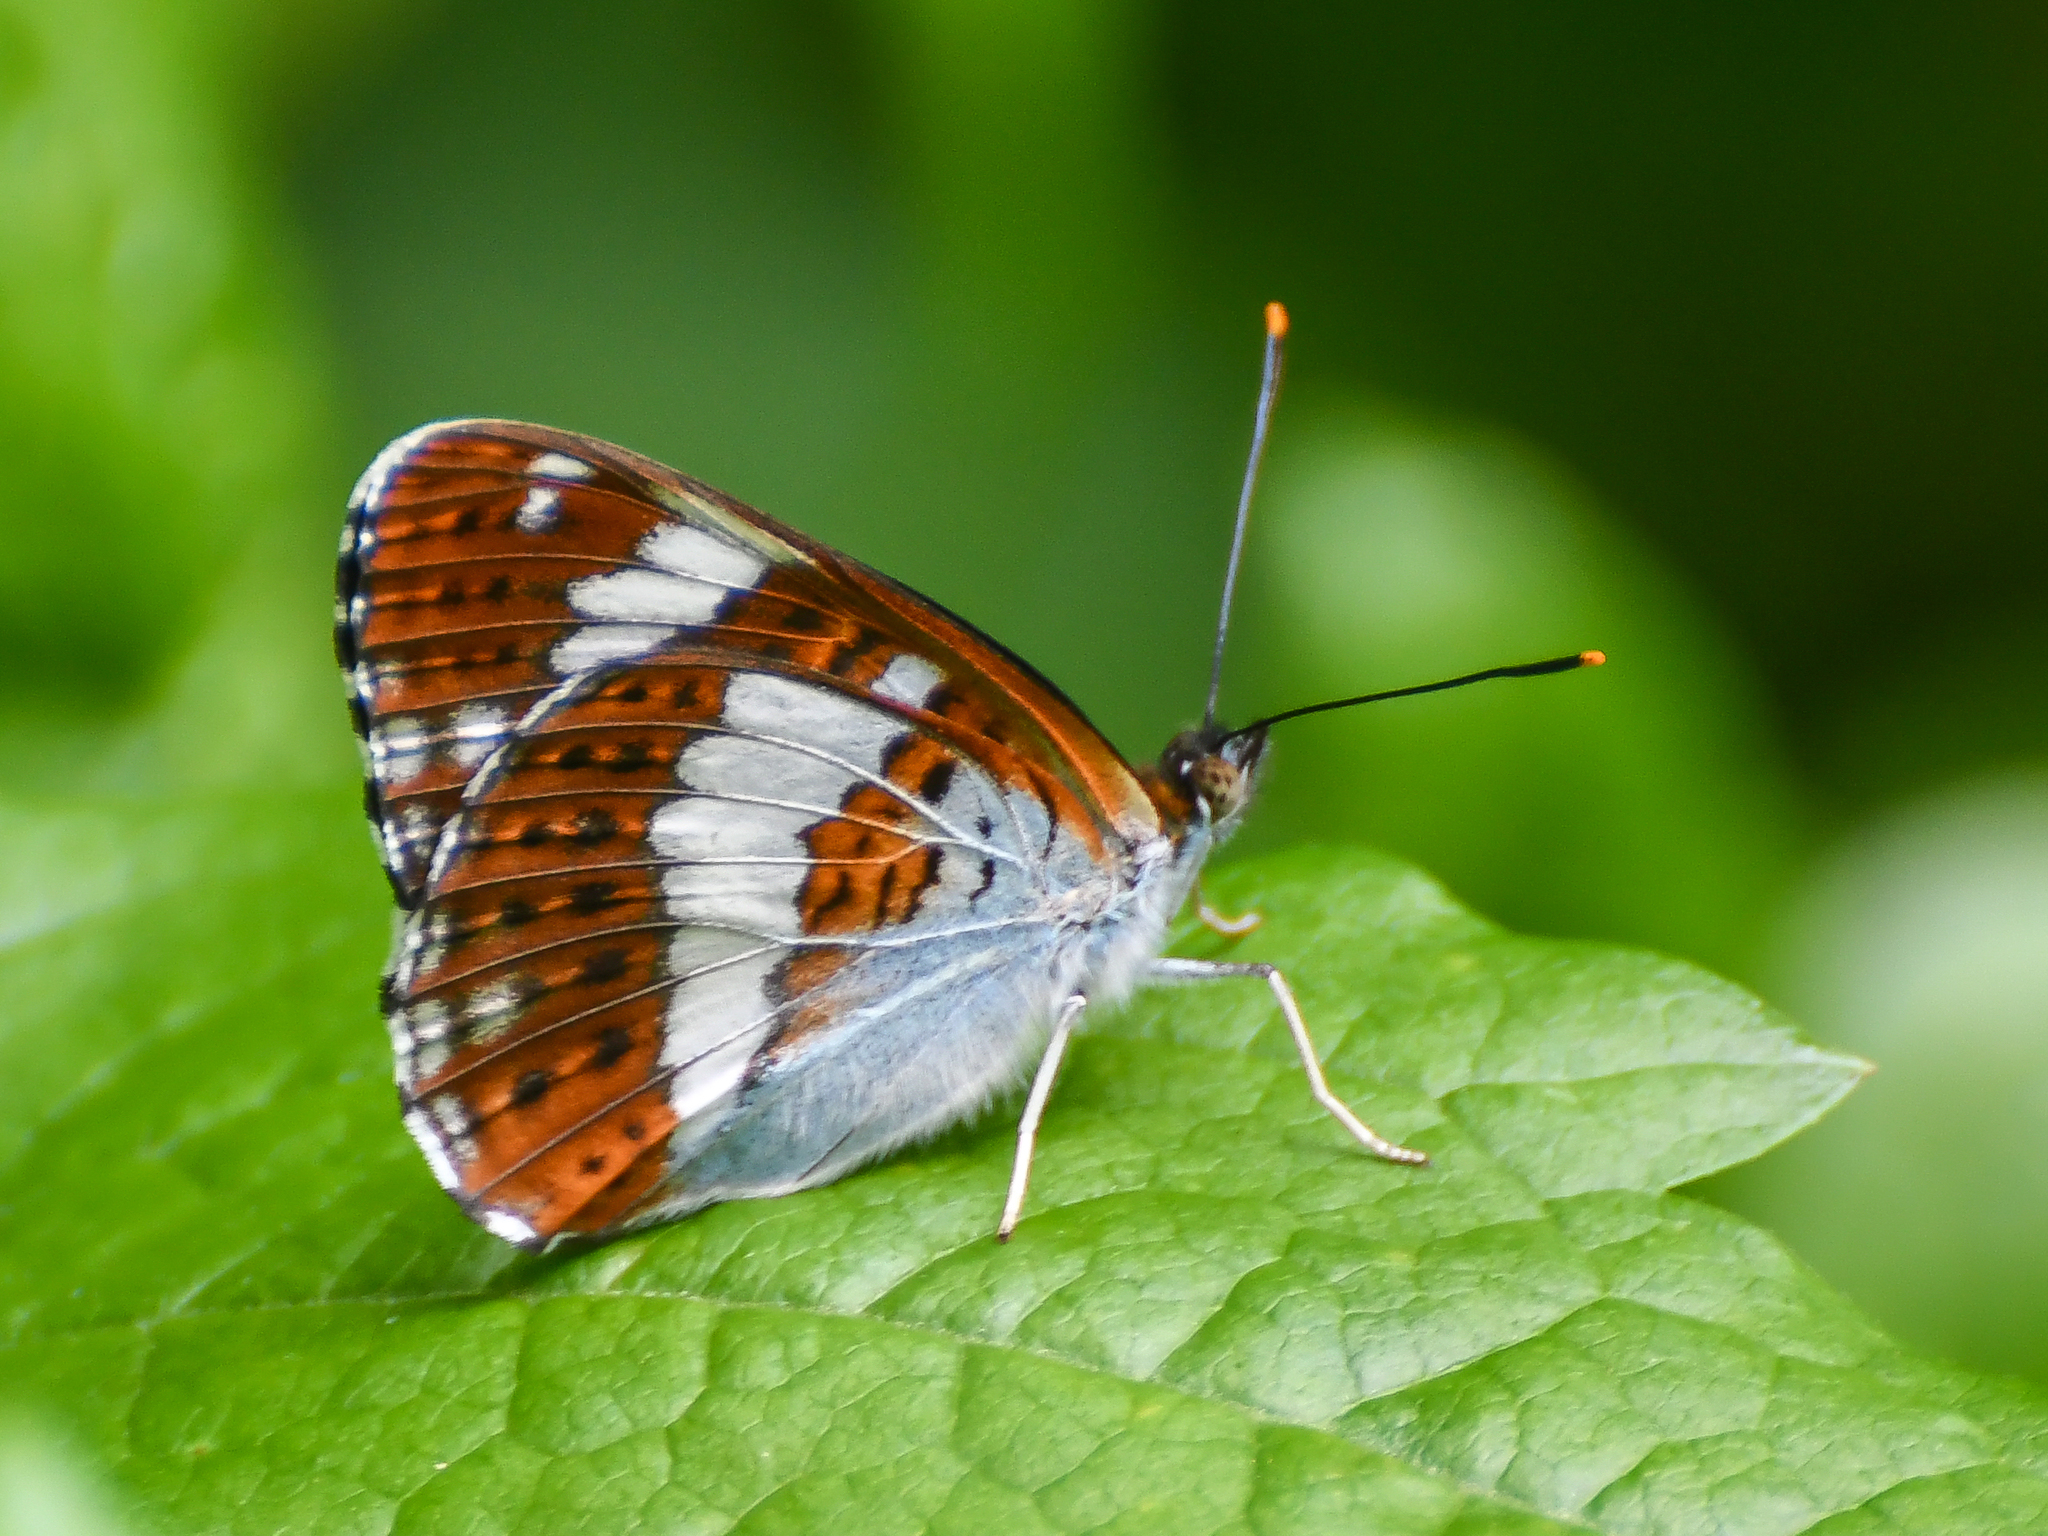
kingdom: Animalia
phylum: Arthropoda
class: Insecta
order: Lepidoptera
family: Nymphalidae
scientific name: Nymphalidae
